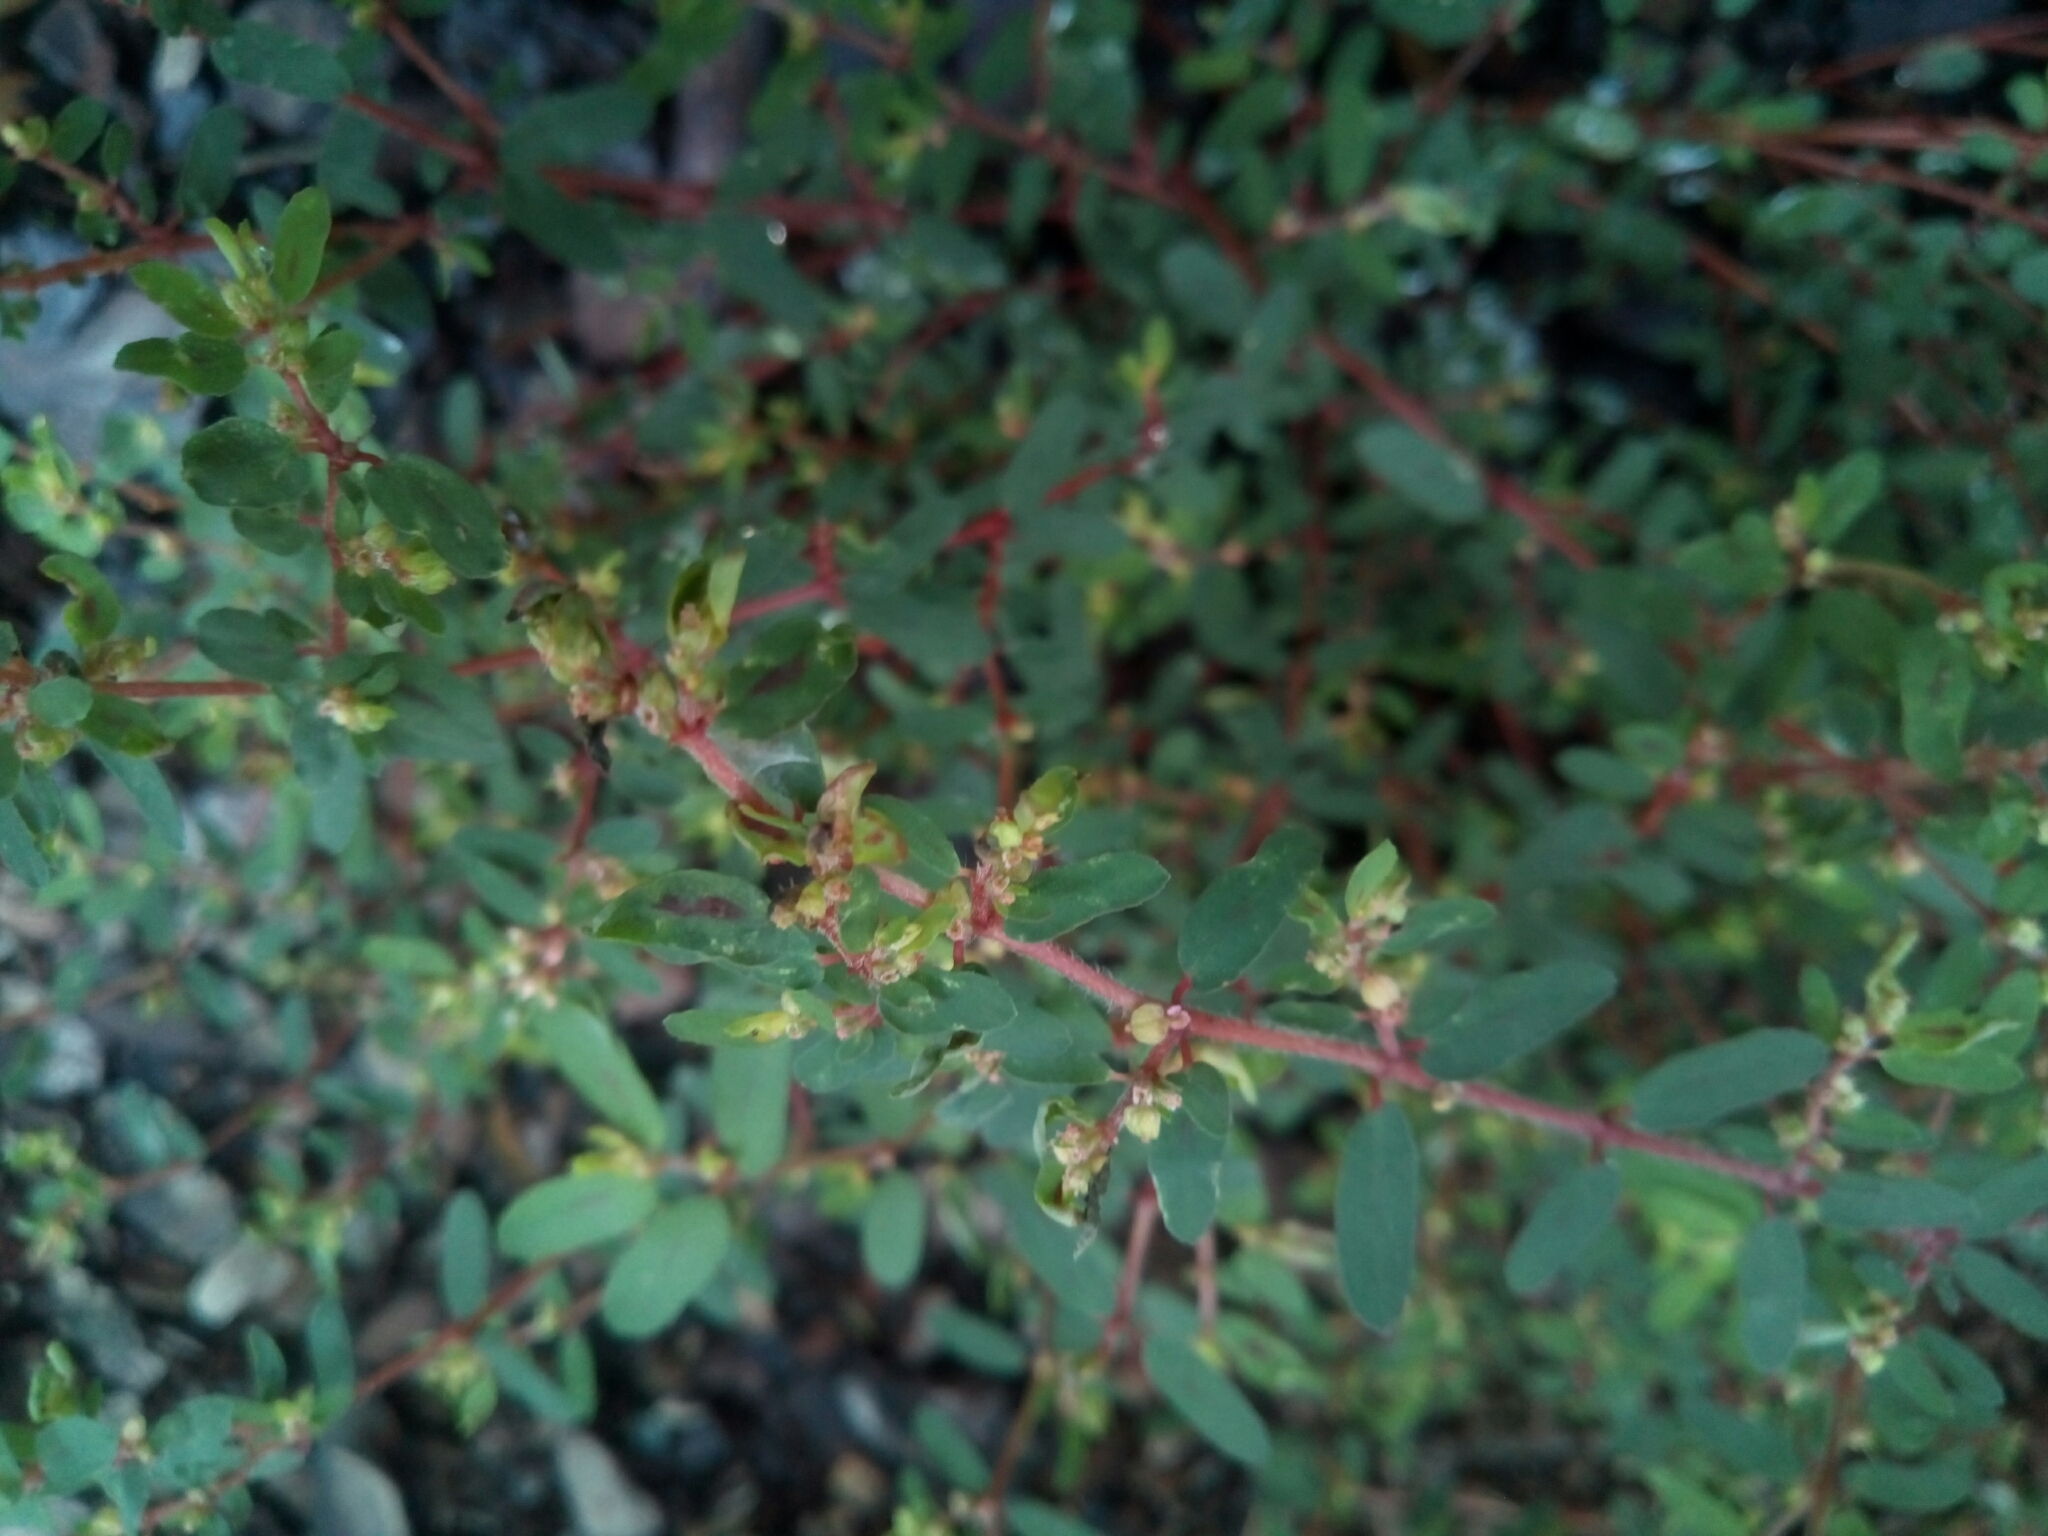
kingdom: Plantae
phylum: Tracheophyta
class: Magnoliopsida
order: Malpighiales
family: Euphorbiaceae
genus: Euphorbia
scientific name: Euphorbia maculata
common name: Spotted spurge
